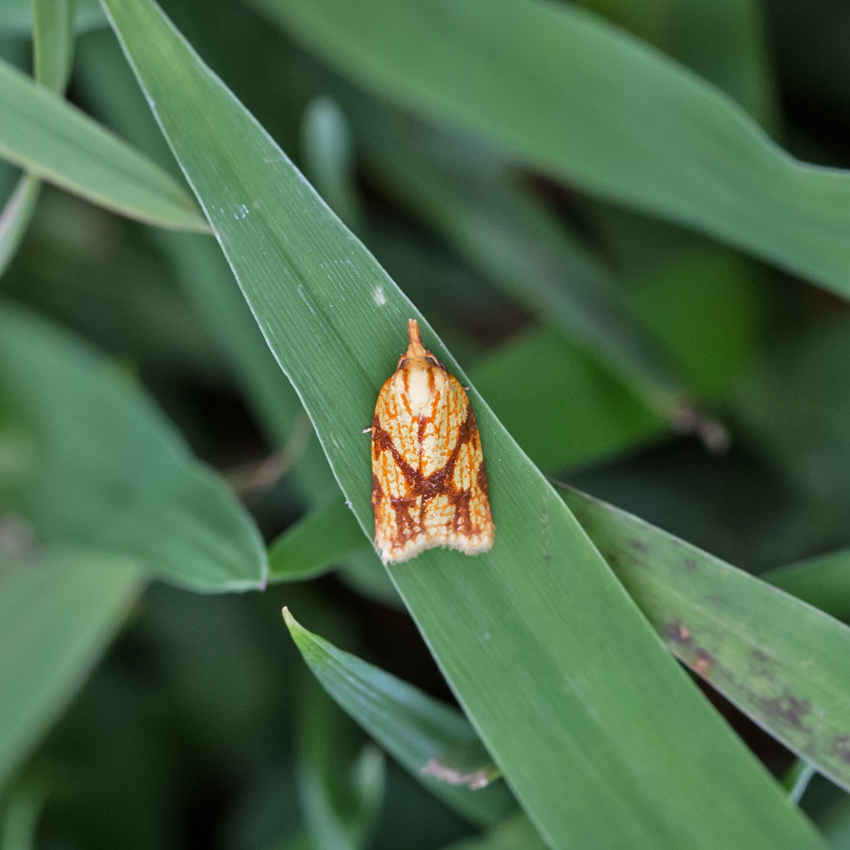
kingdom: Animalia
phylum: Arthropoda
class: Insecta
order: Lepidoptera
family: Tortricidae
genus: Sparganothis
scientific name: Sparganothis sulfureana
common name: Sparganothis fruitworm moth
